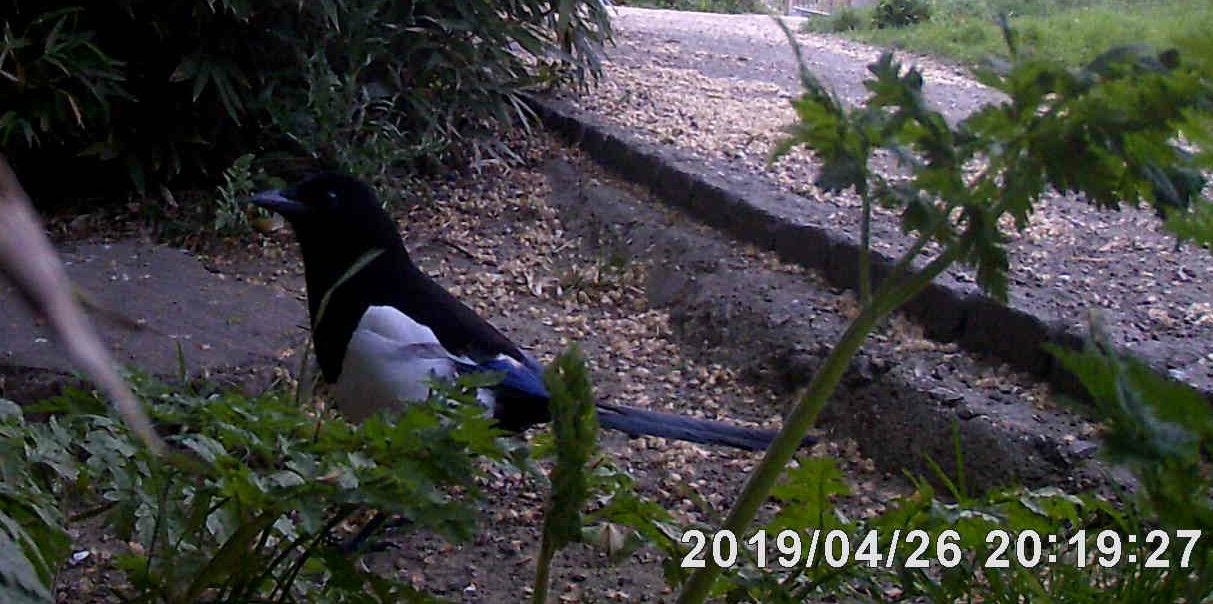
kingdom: Animalia
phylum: Chordata
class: Aves
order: Passeriformes
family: Corvidae
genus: Pica
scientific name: Pica pica
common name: Eurasian magpie
